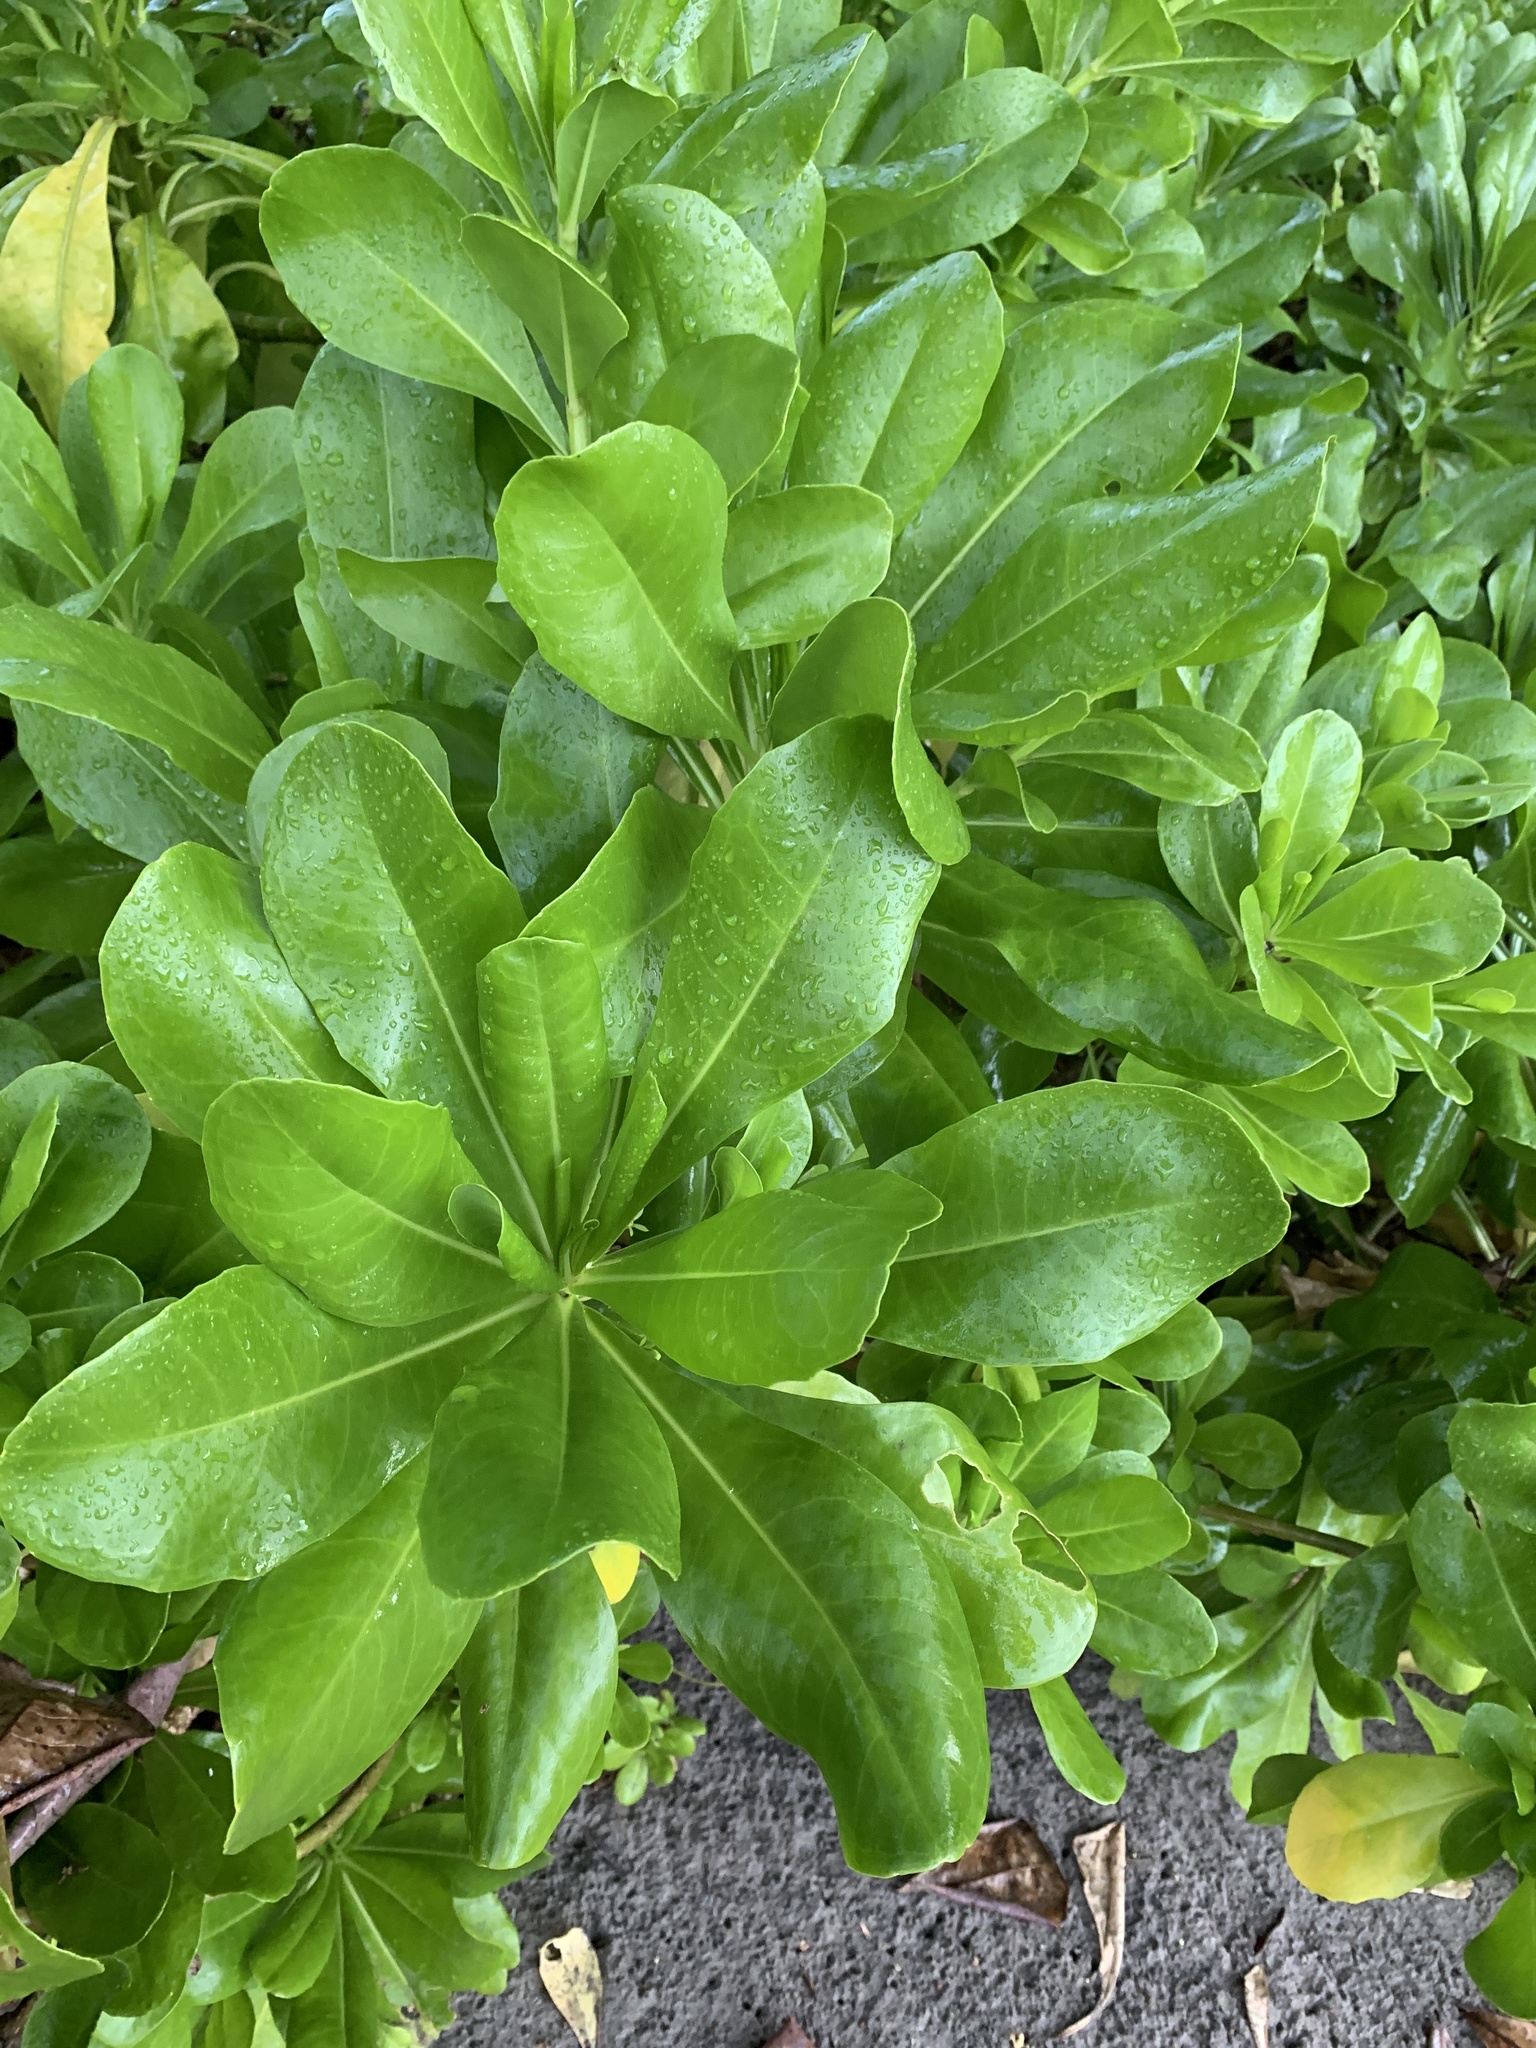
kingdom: Plantae
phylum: Tracheophyta
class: Magnoliopsida
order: Asterales
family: Goodeniaceae
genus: Scaevola
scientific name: Scaevola taccada
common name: Sea lettucetree
